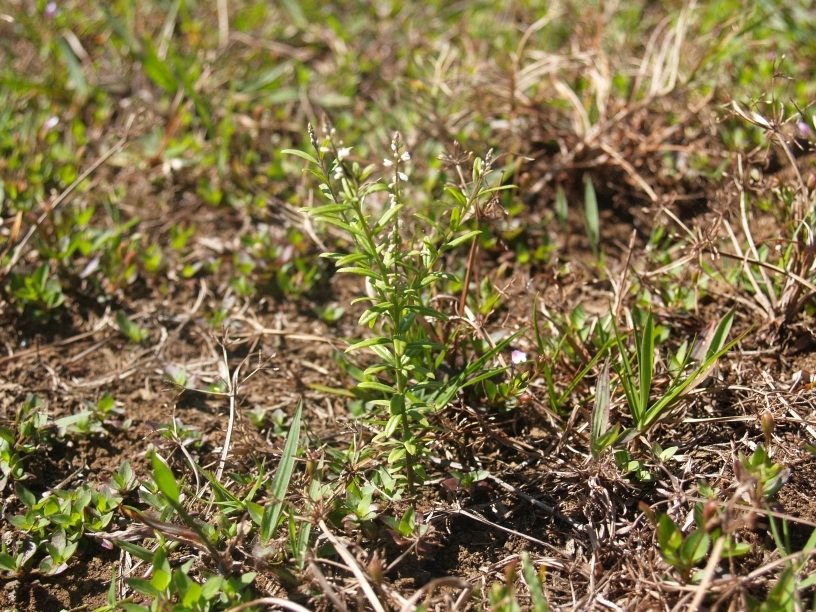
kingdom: Plantae
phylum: Tracheophyta
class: Magnoliopsida
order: Fabales
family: Polygalaceae
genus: Polygala
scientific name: Polygala paniculata
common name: Orosne
